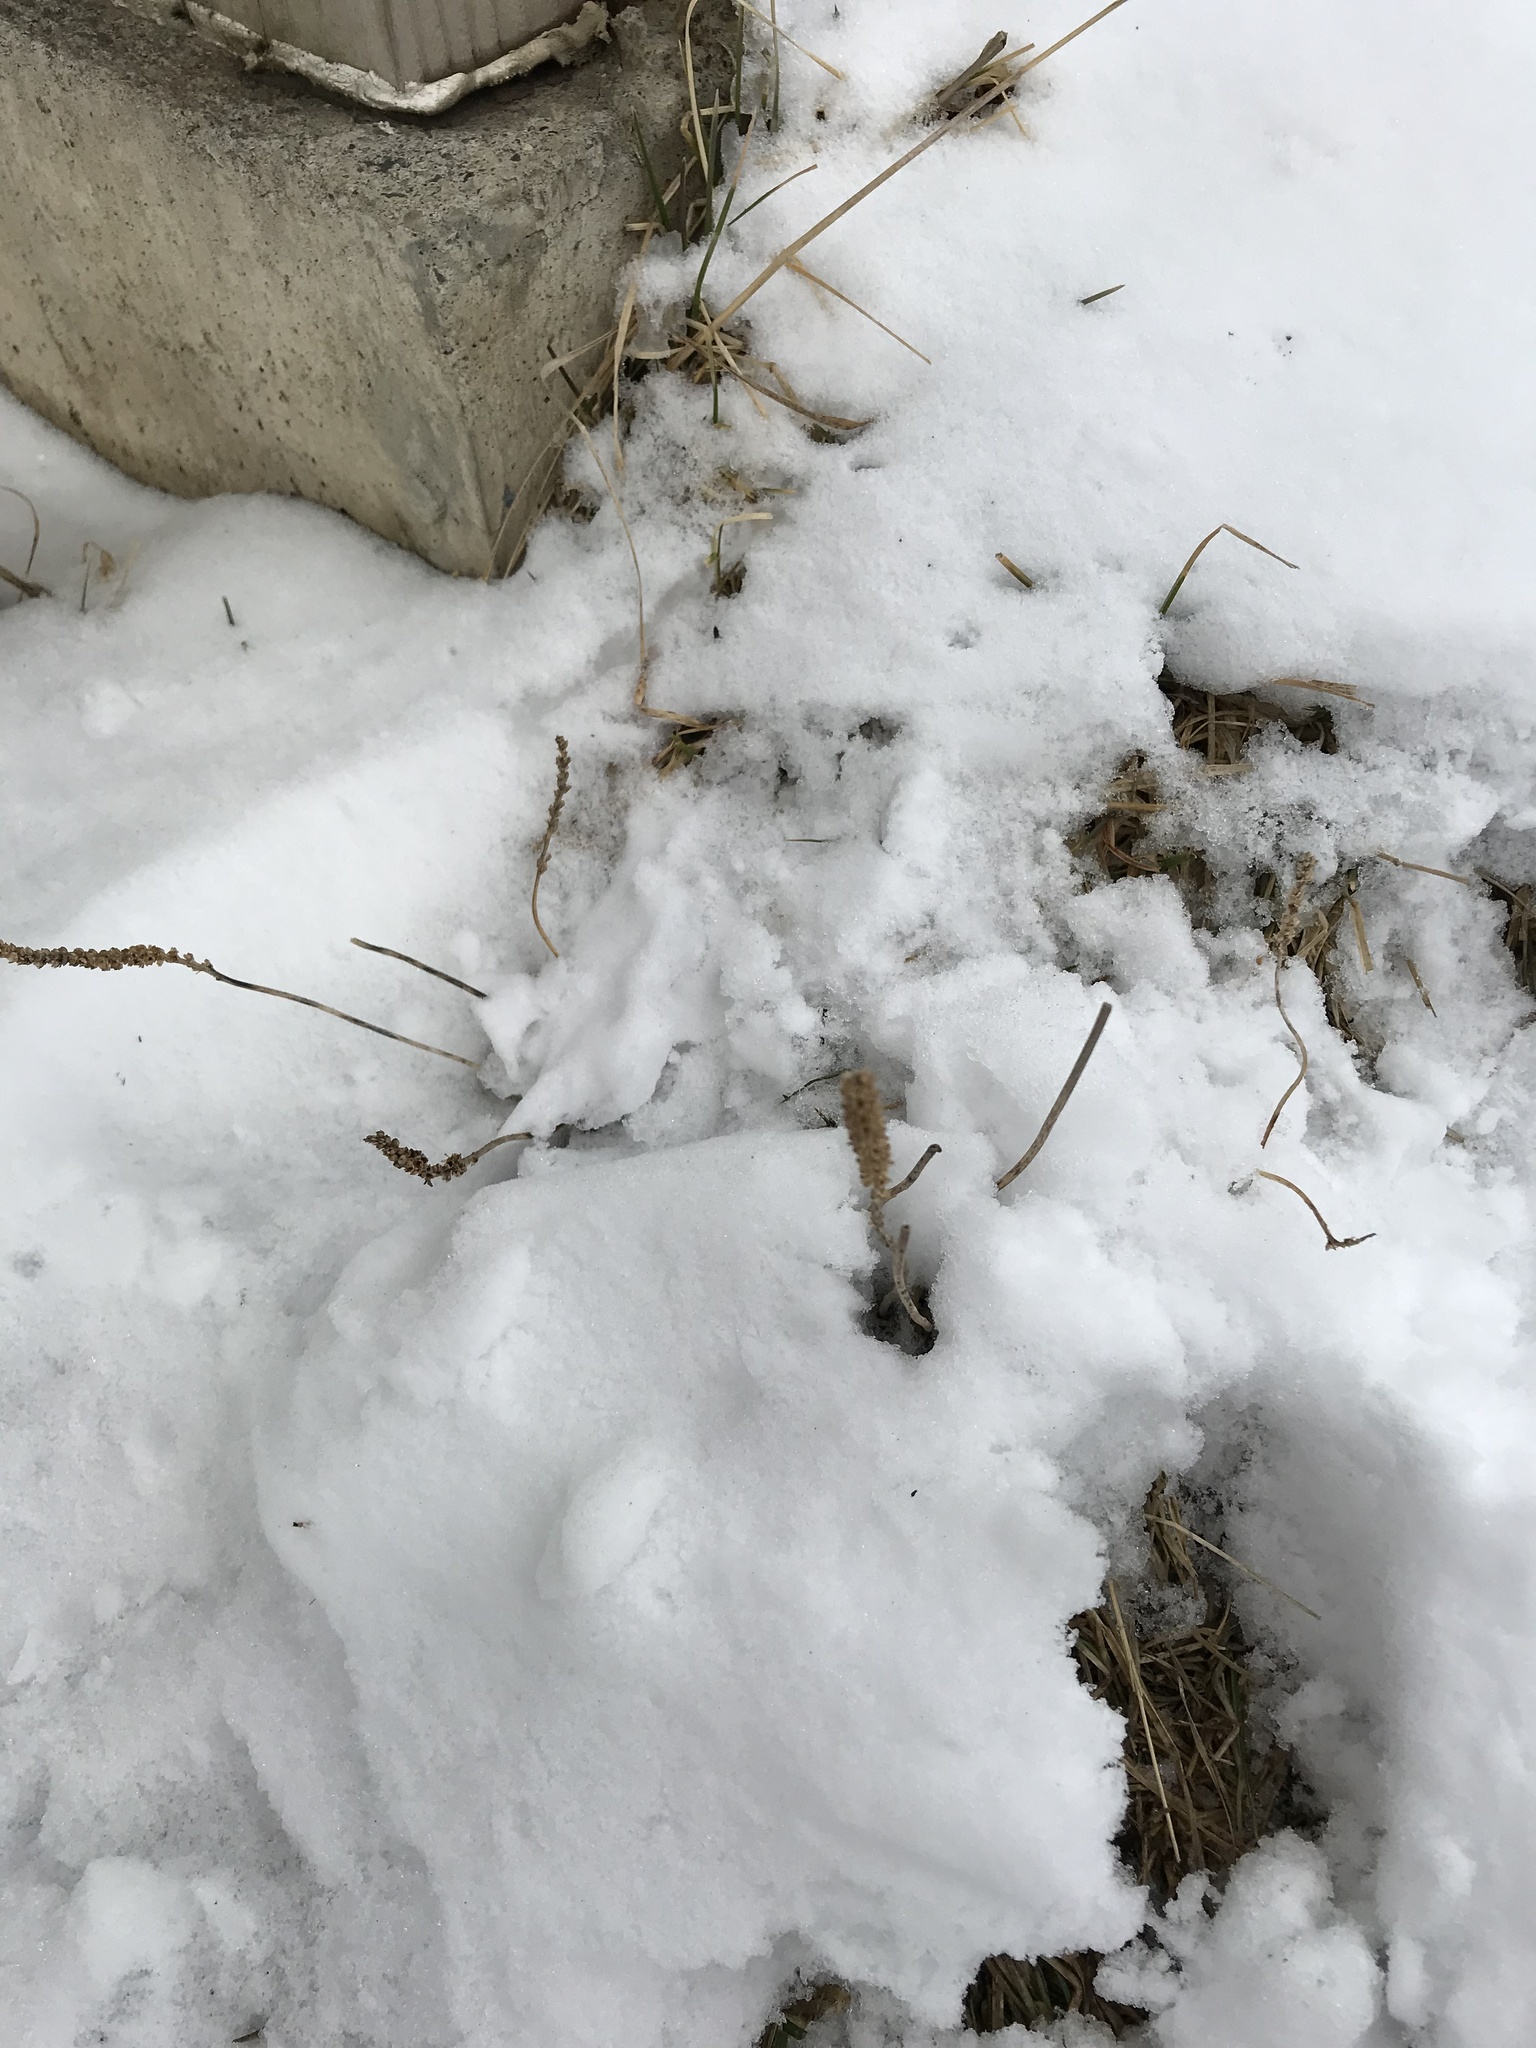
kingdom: Plantae
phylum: Tracheophyta
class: Magnoliopsida
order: Lamiales
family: Plantaginaceae
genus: Plantago
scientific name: Plantago major
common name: Common plantain
